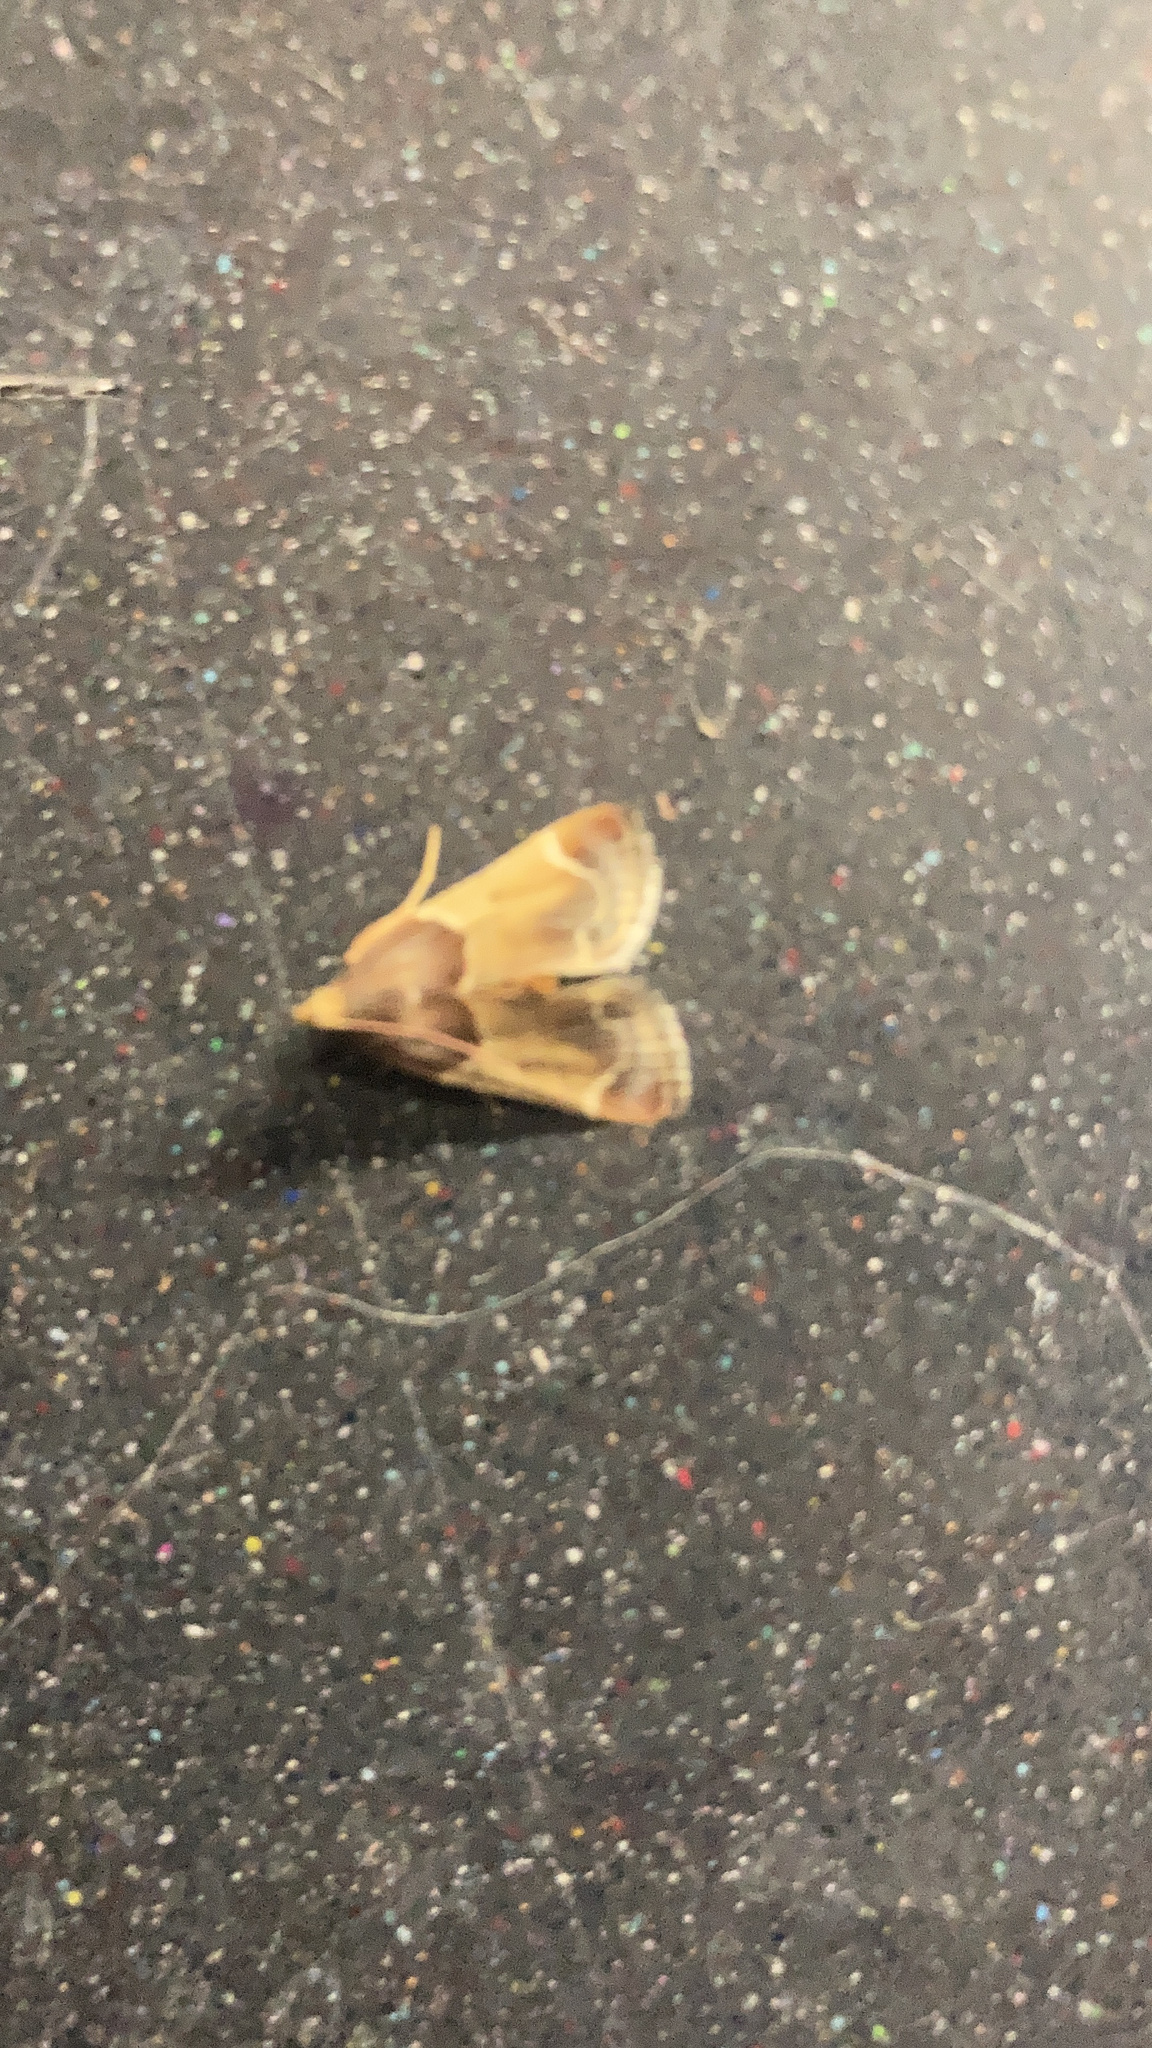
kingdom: Animalia
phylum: Arthropoda
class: Insecta
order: Lepidoptera
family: Pyralidae
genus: Pyralis
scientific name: Pyralis farinalis
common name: Meal moth
